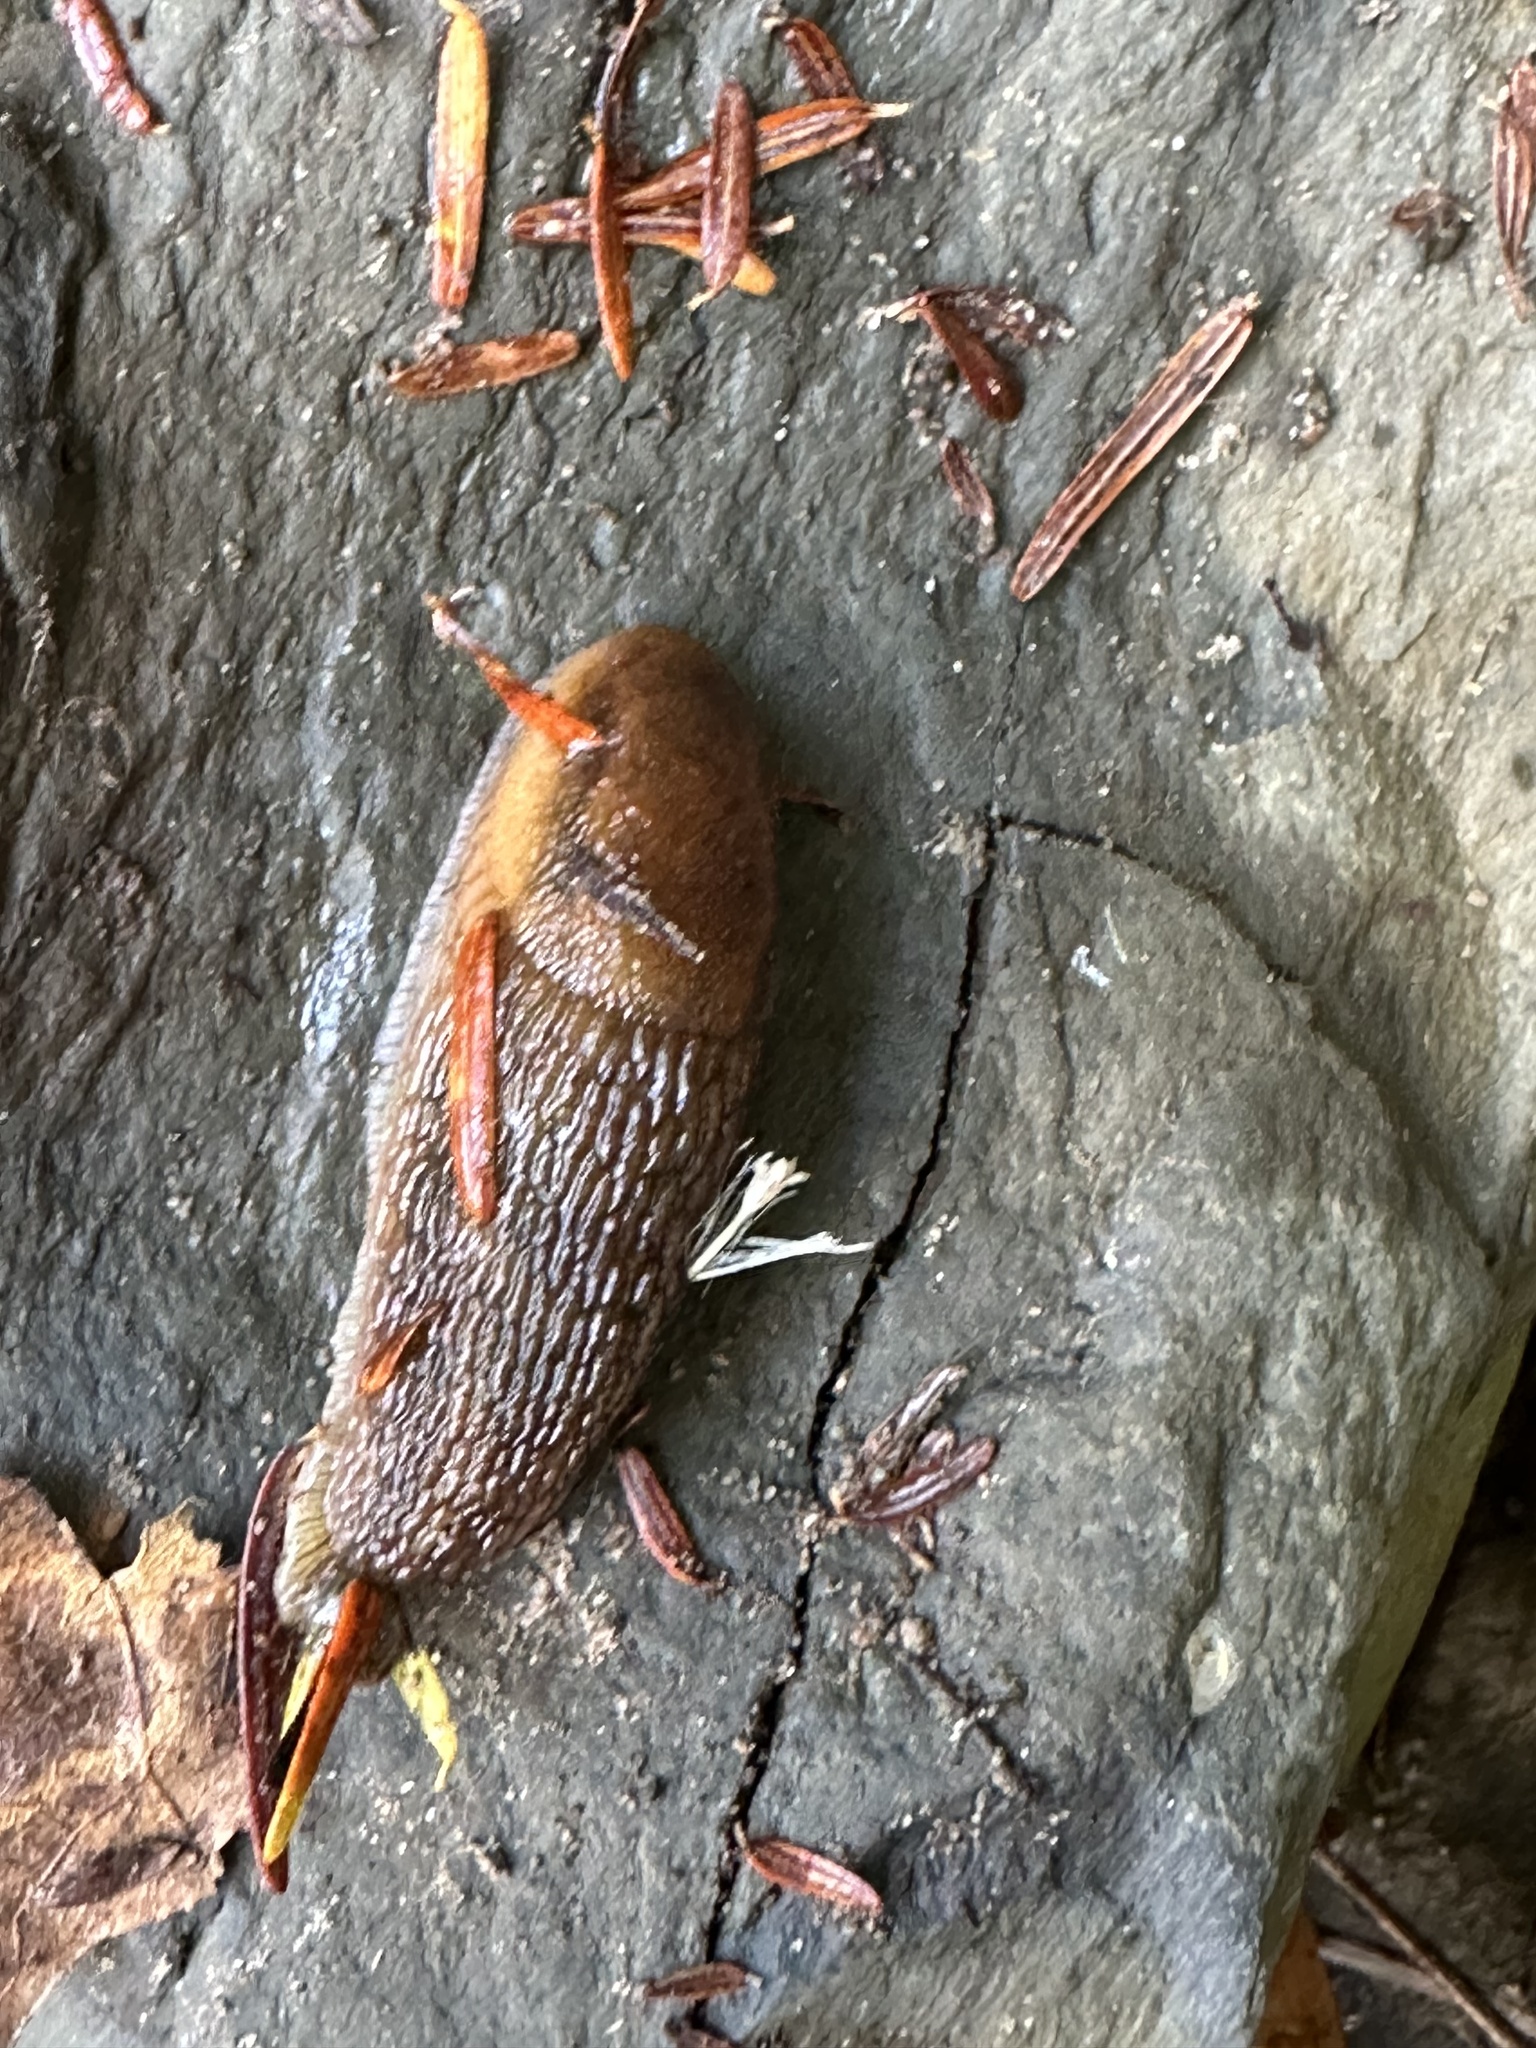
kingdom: Animalia
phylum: Mollusca
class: Gastropoda
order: Stylommatophora
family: Arionidae
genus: Arion
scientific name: Arion subfuscus
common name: Dusky arion
